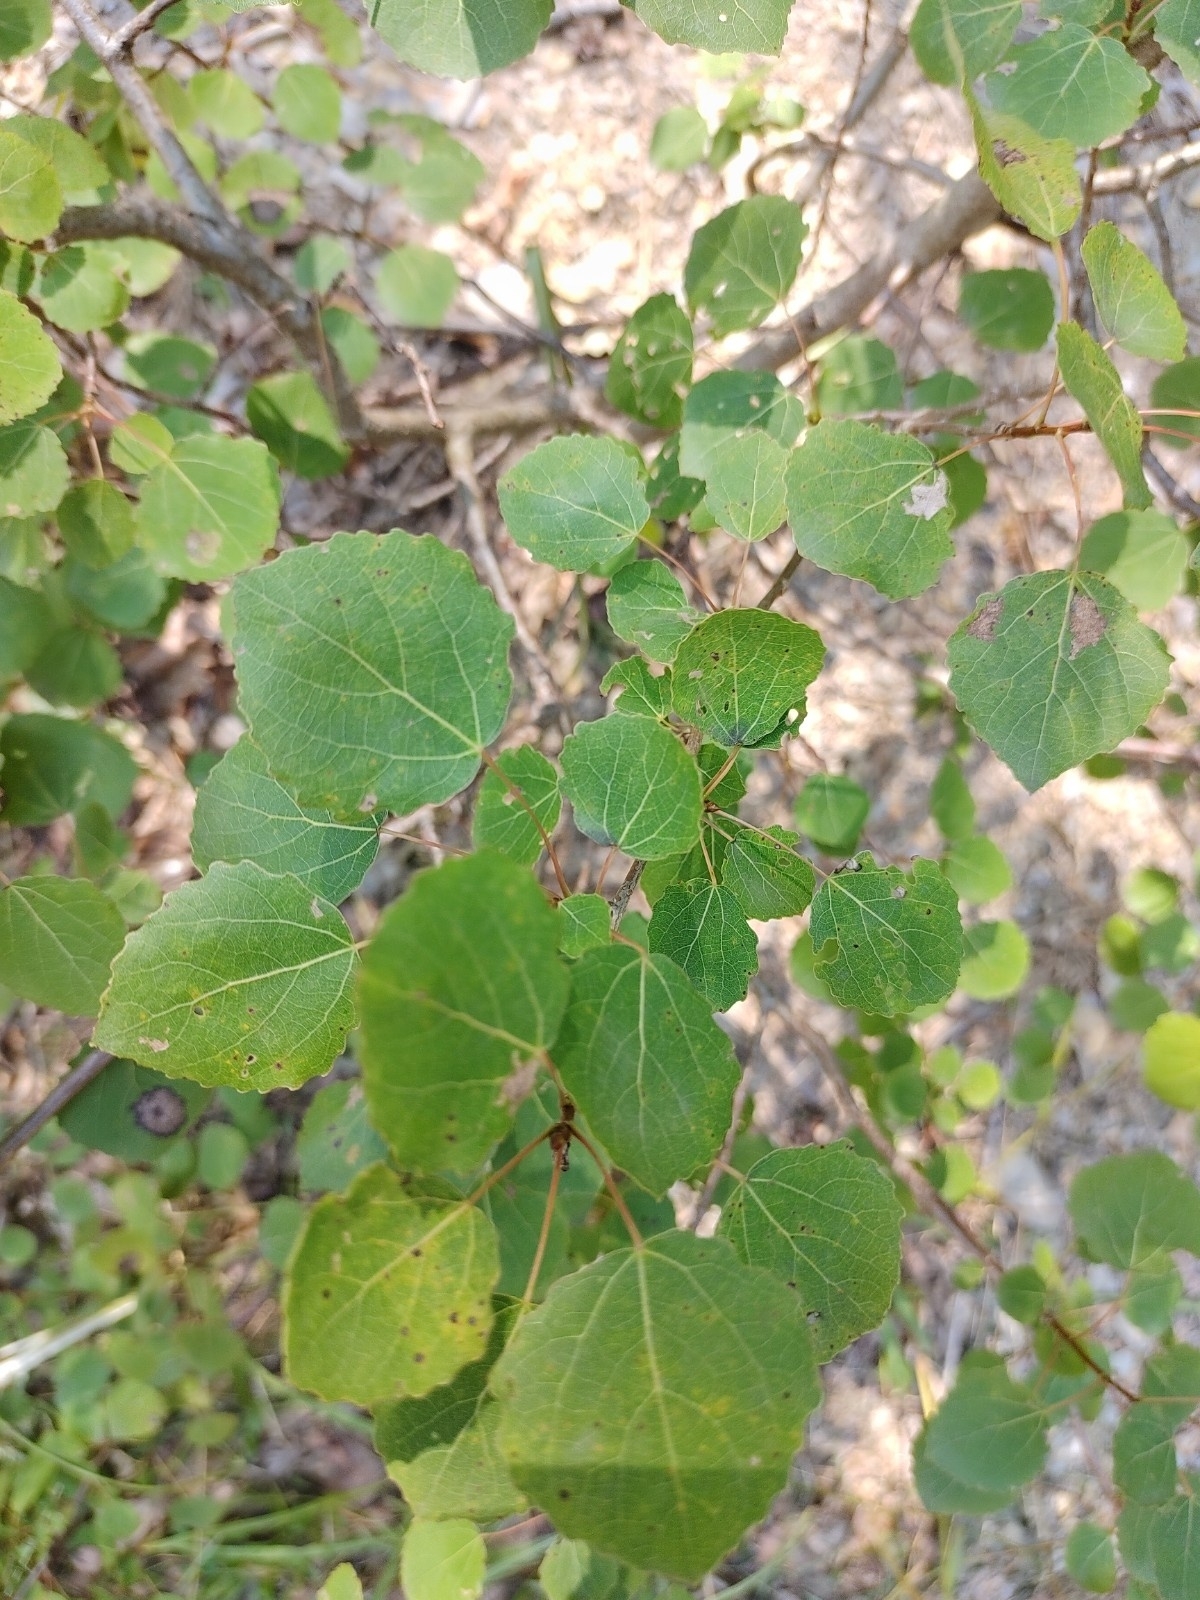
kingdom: Plantae
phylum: Tracheophyta
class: Magnoliopsida
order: Malpighiales
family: Salicaceae
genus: Populus
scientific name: Populus tremula
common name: European aspen
